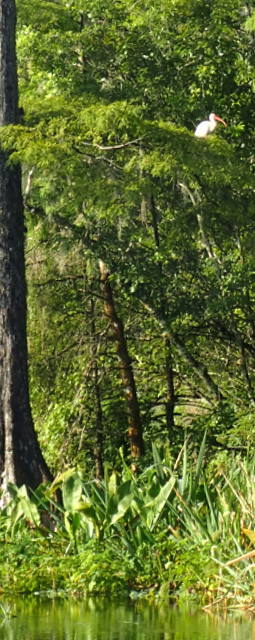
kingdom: Animalia
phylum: Chordata
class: Aves
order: Pelecaniformes
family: Threskiornithidae
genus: Eudocimus
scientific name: Eudocimus albus
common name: White ibis
